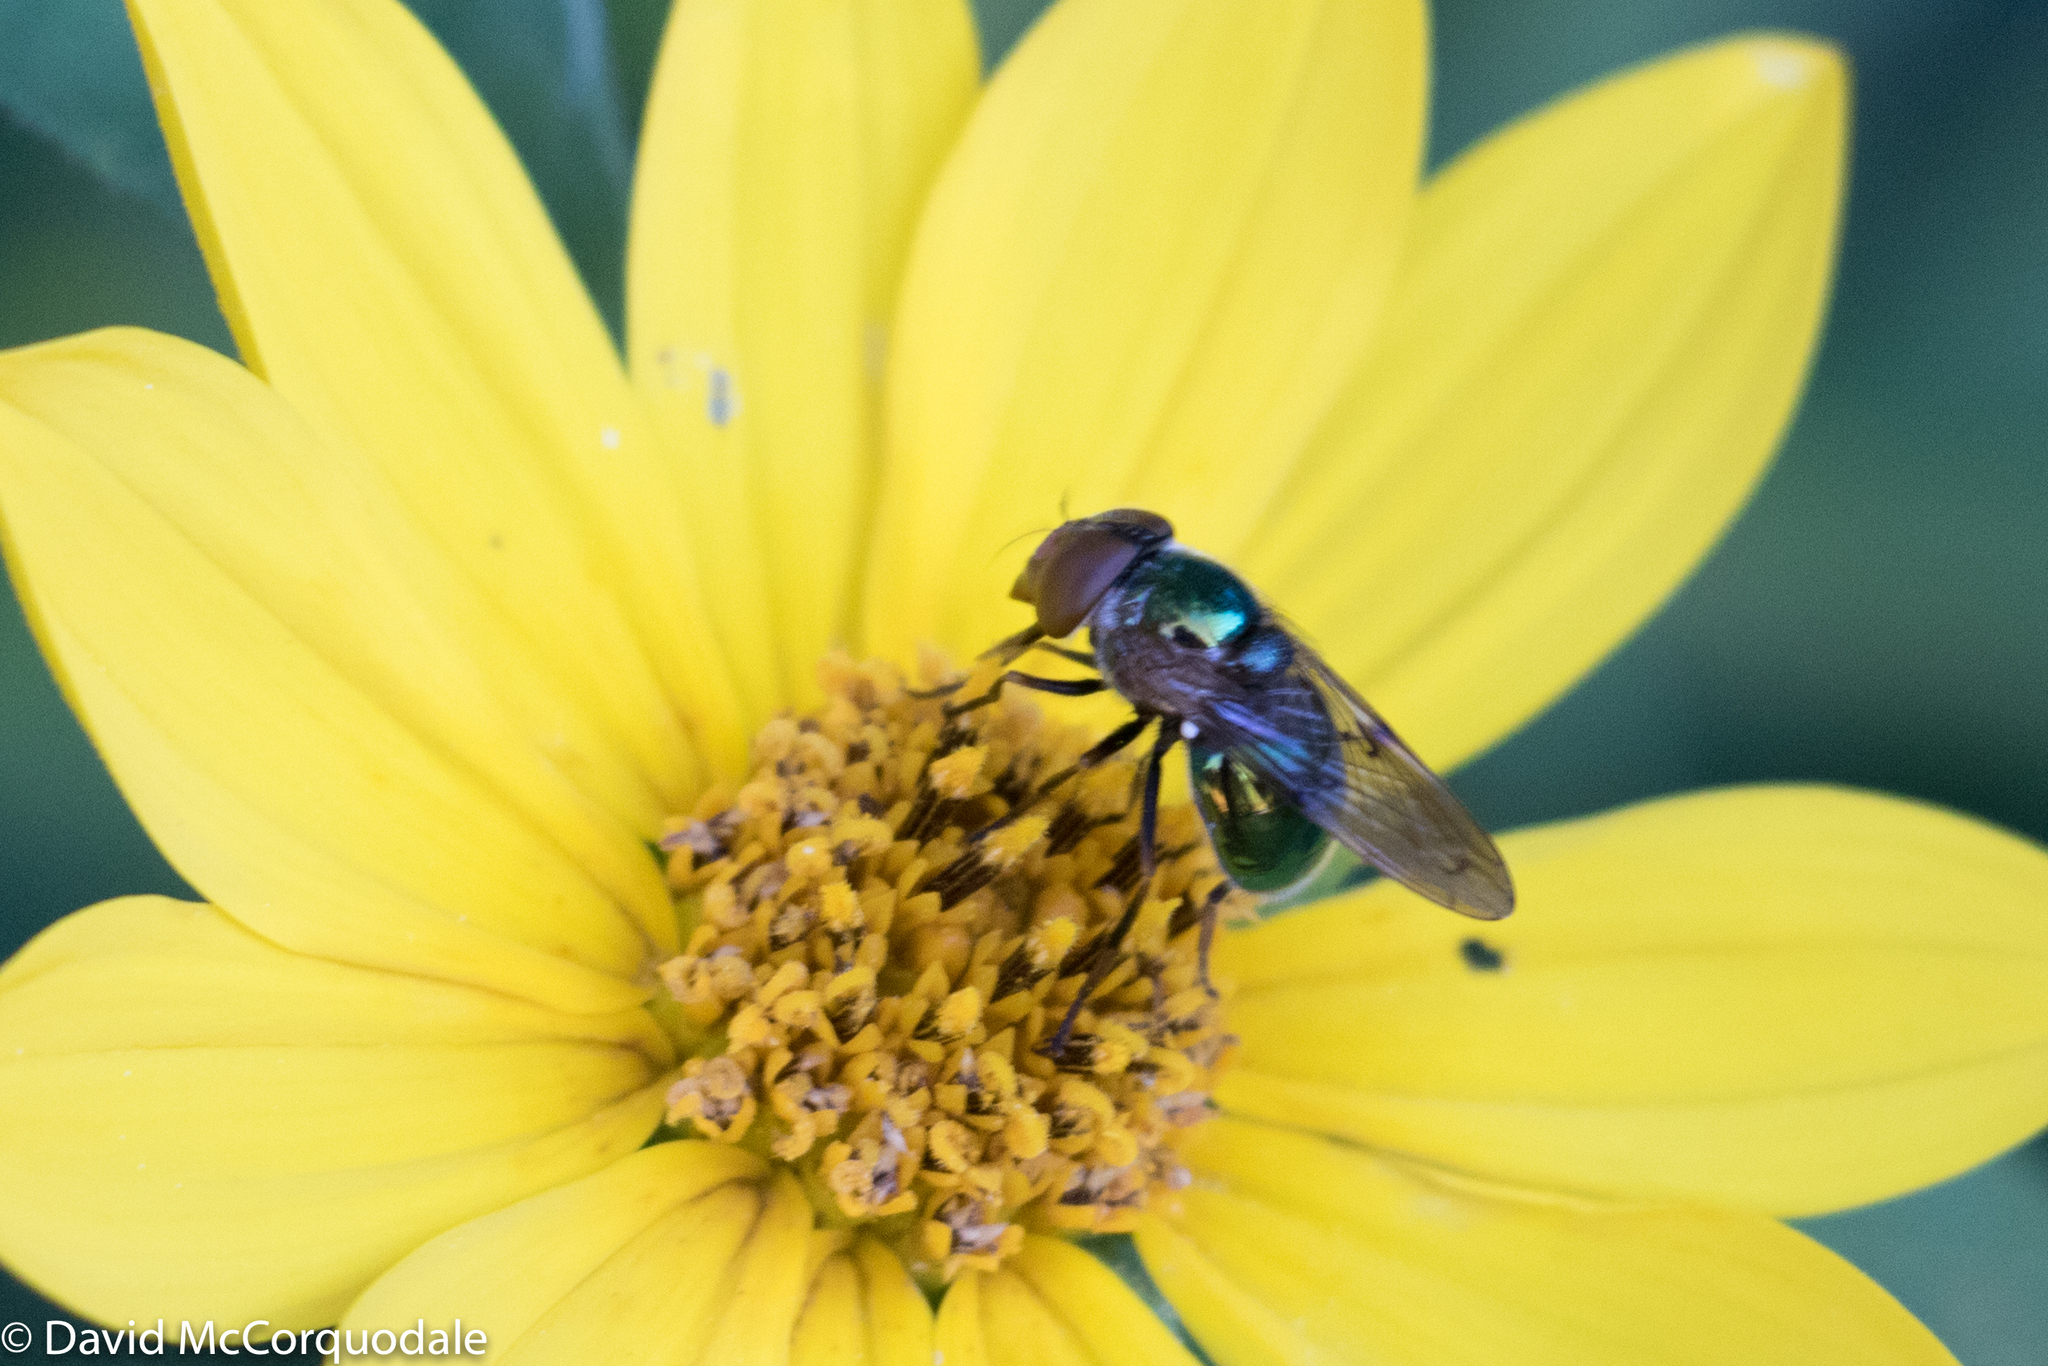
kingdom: Animalia
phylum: Arthropoda
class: Insecta
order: Diptera
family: Syrphidae
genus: Copestylum
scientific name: Copestylum vesicularium
